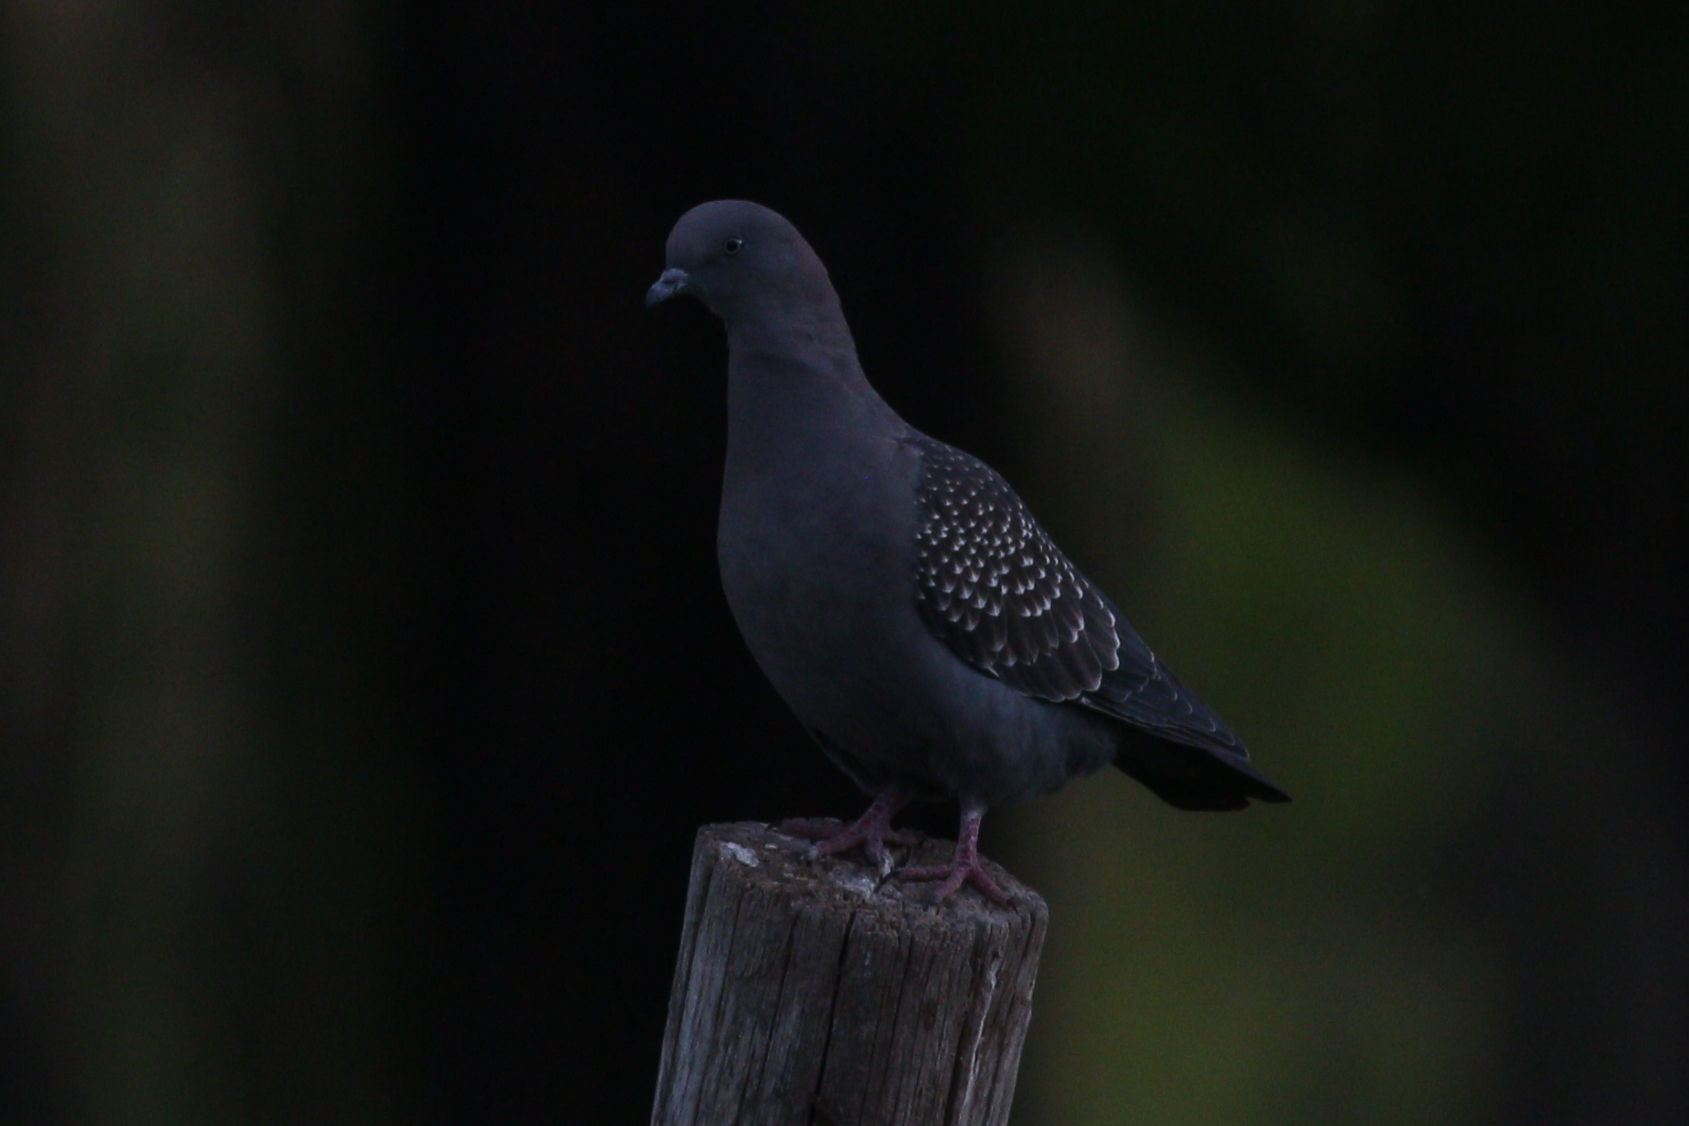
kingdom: Animalia
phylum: Chordata
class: Aves
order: Columbiformes
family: Columbidae
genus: Patagioenas
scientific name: Patagioenas maculosa
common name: Spot-winged pigeon
